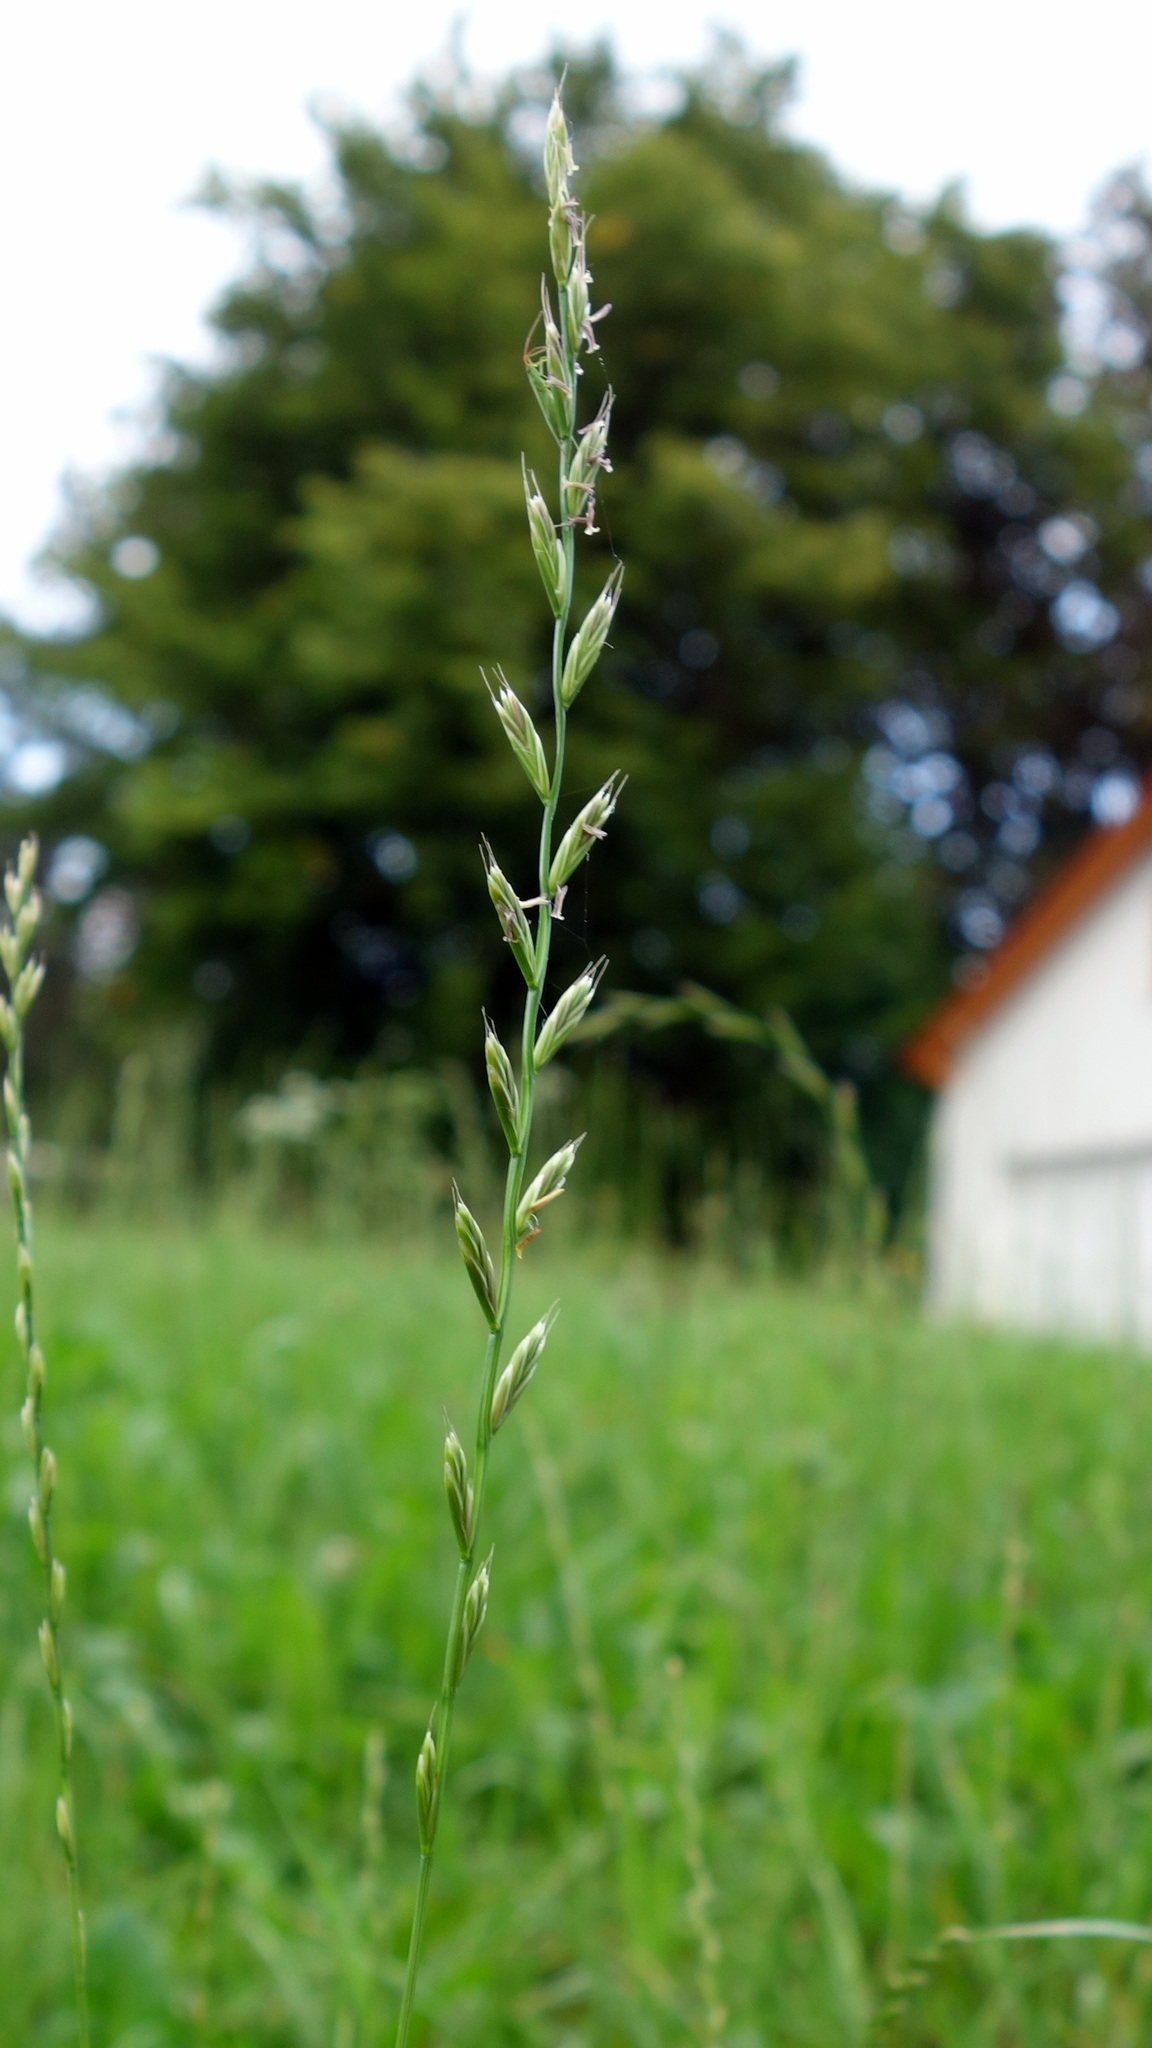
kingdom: Plantae
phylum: Tracheophyta
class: Liliopsida
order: Poales
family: Poaceae
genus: Lolium
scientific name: Lolium
